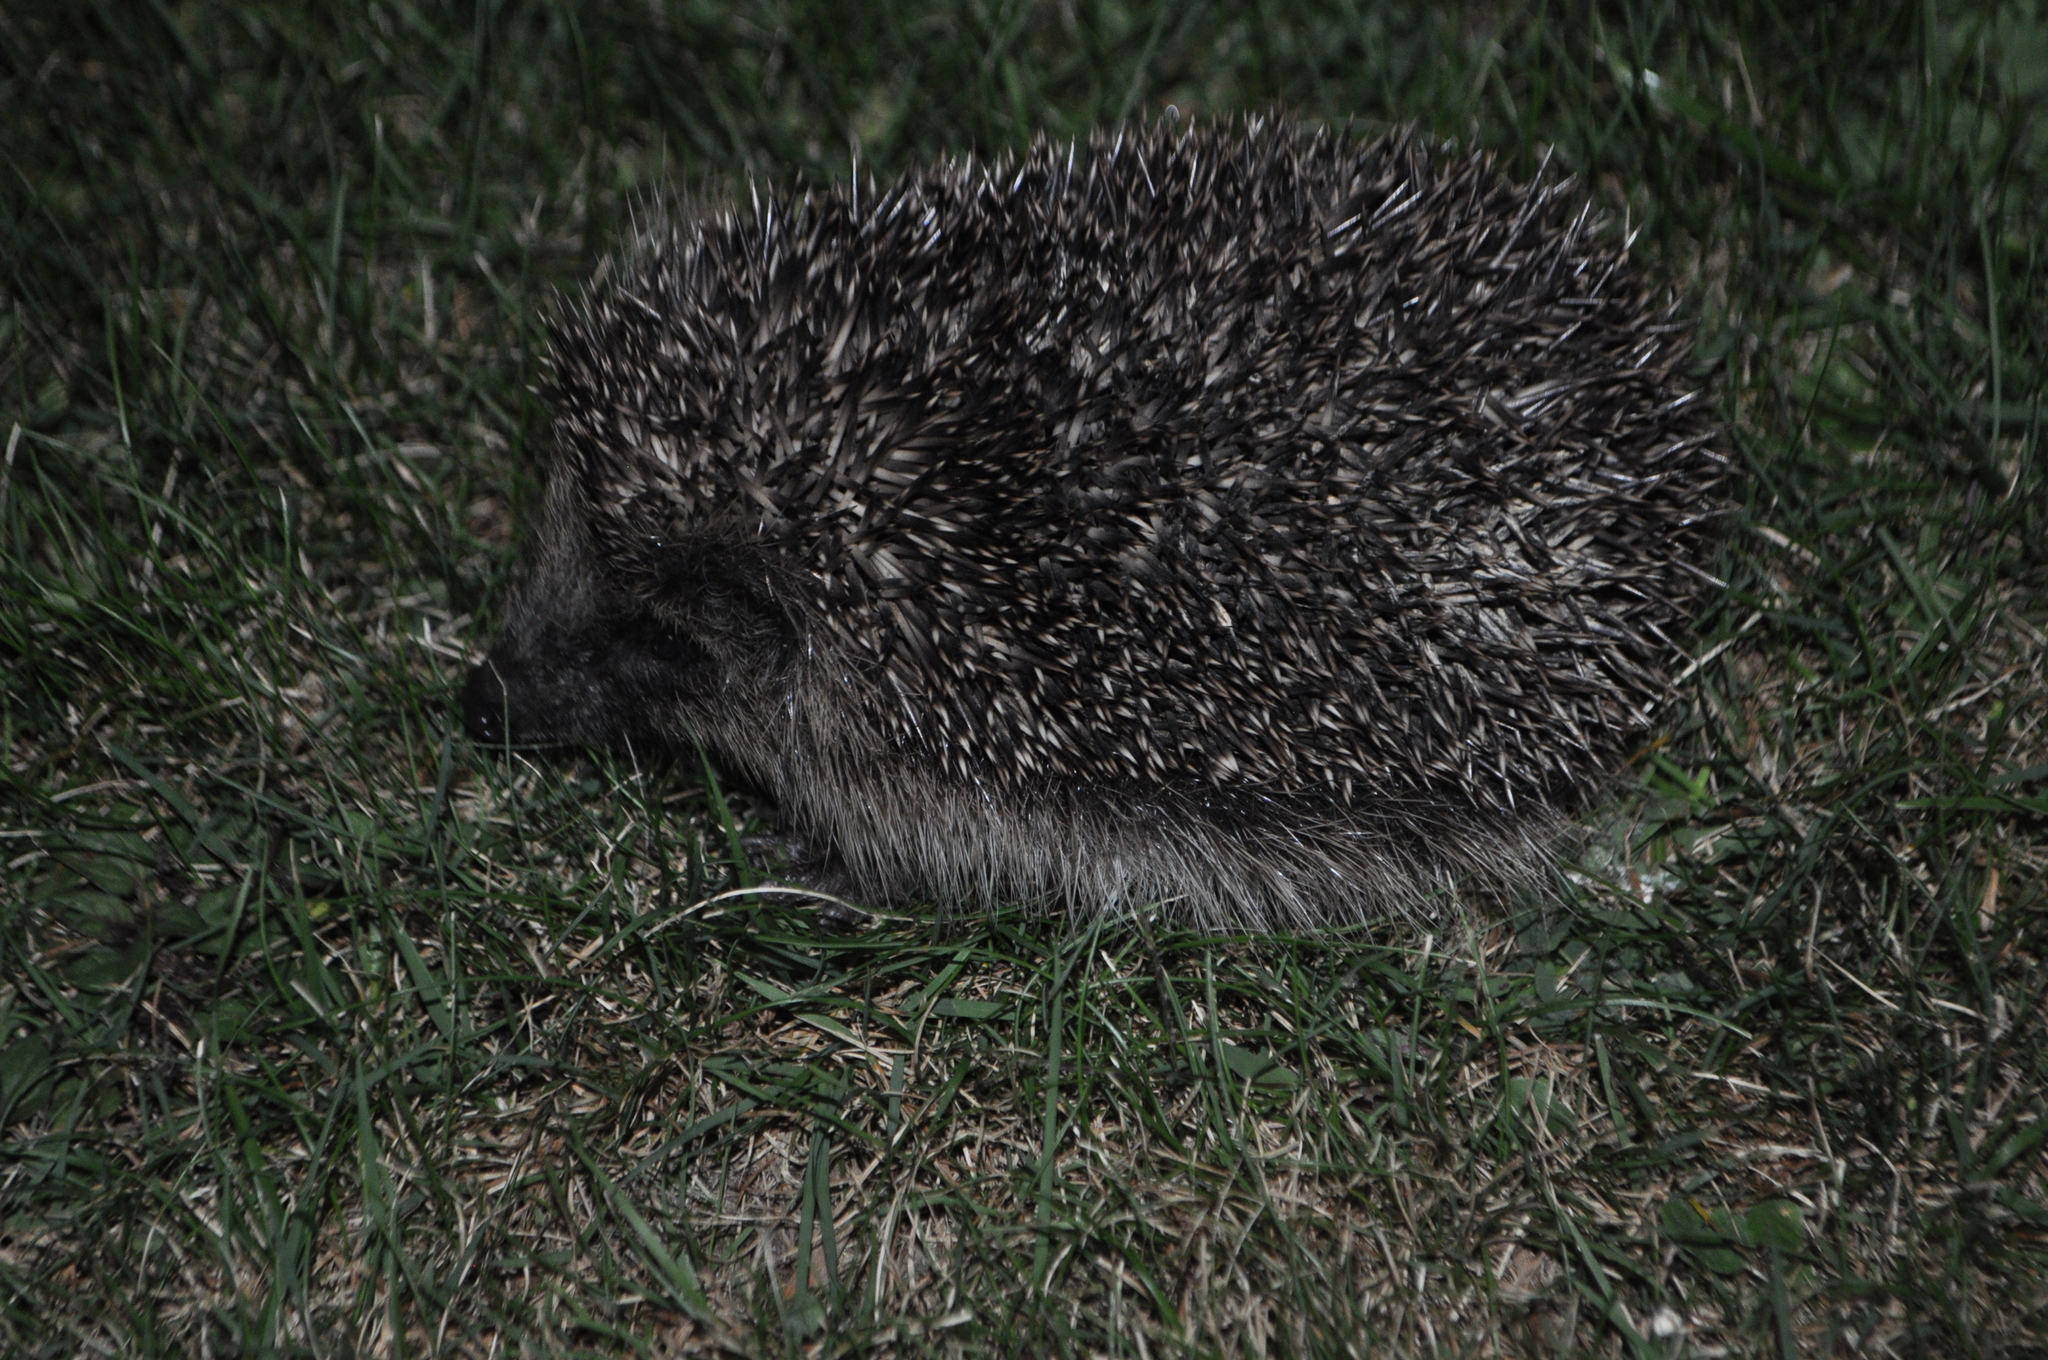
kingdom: Animalia
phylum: Chordata
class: Mammalia
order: Erinaceomorpha
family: Erinaceidae
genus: Erinaceus
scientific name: Erinaceus europaeus
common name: West european hedgehog
